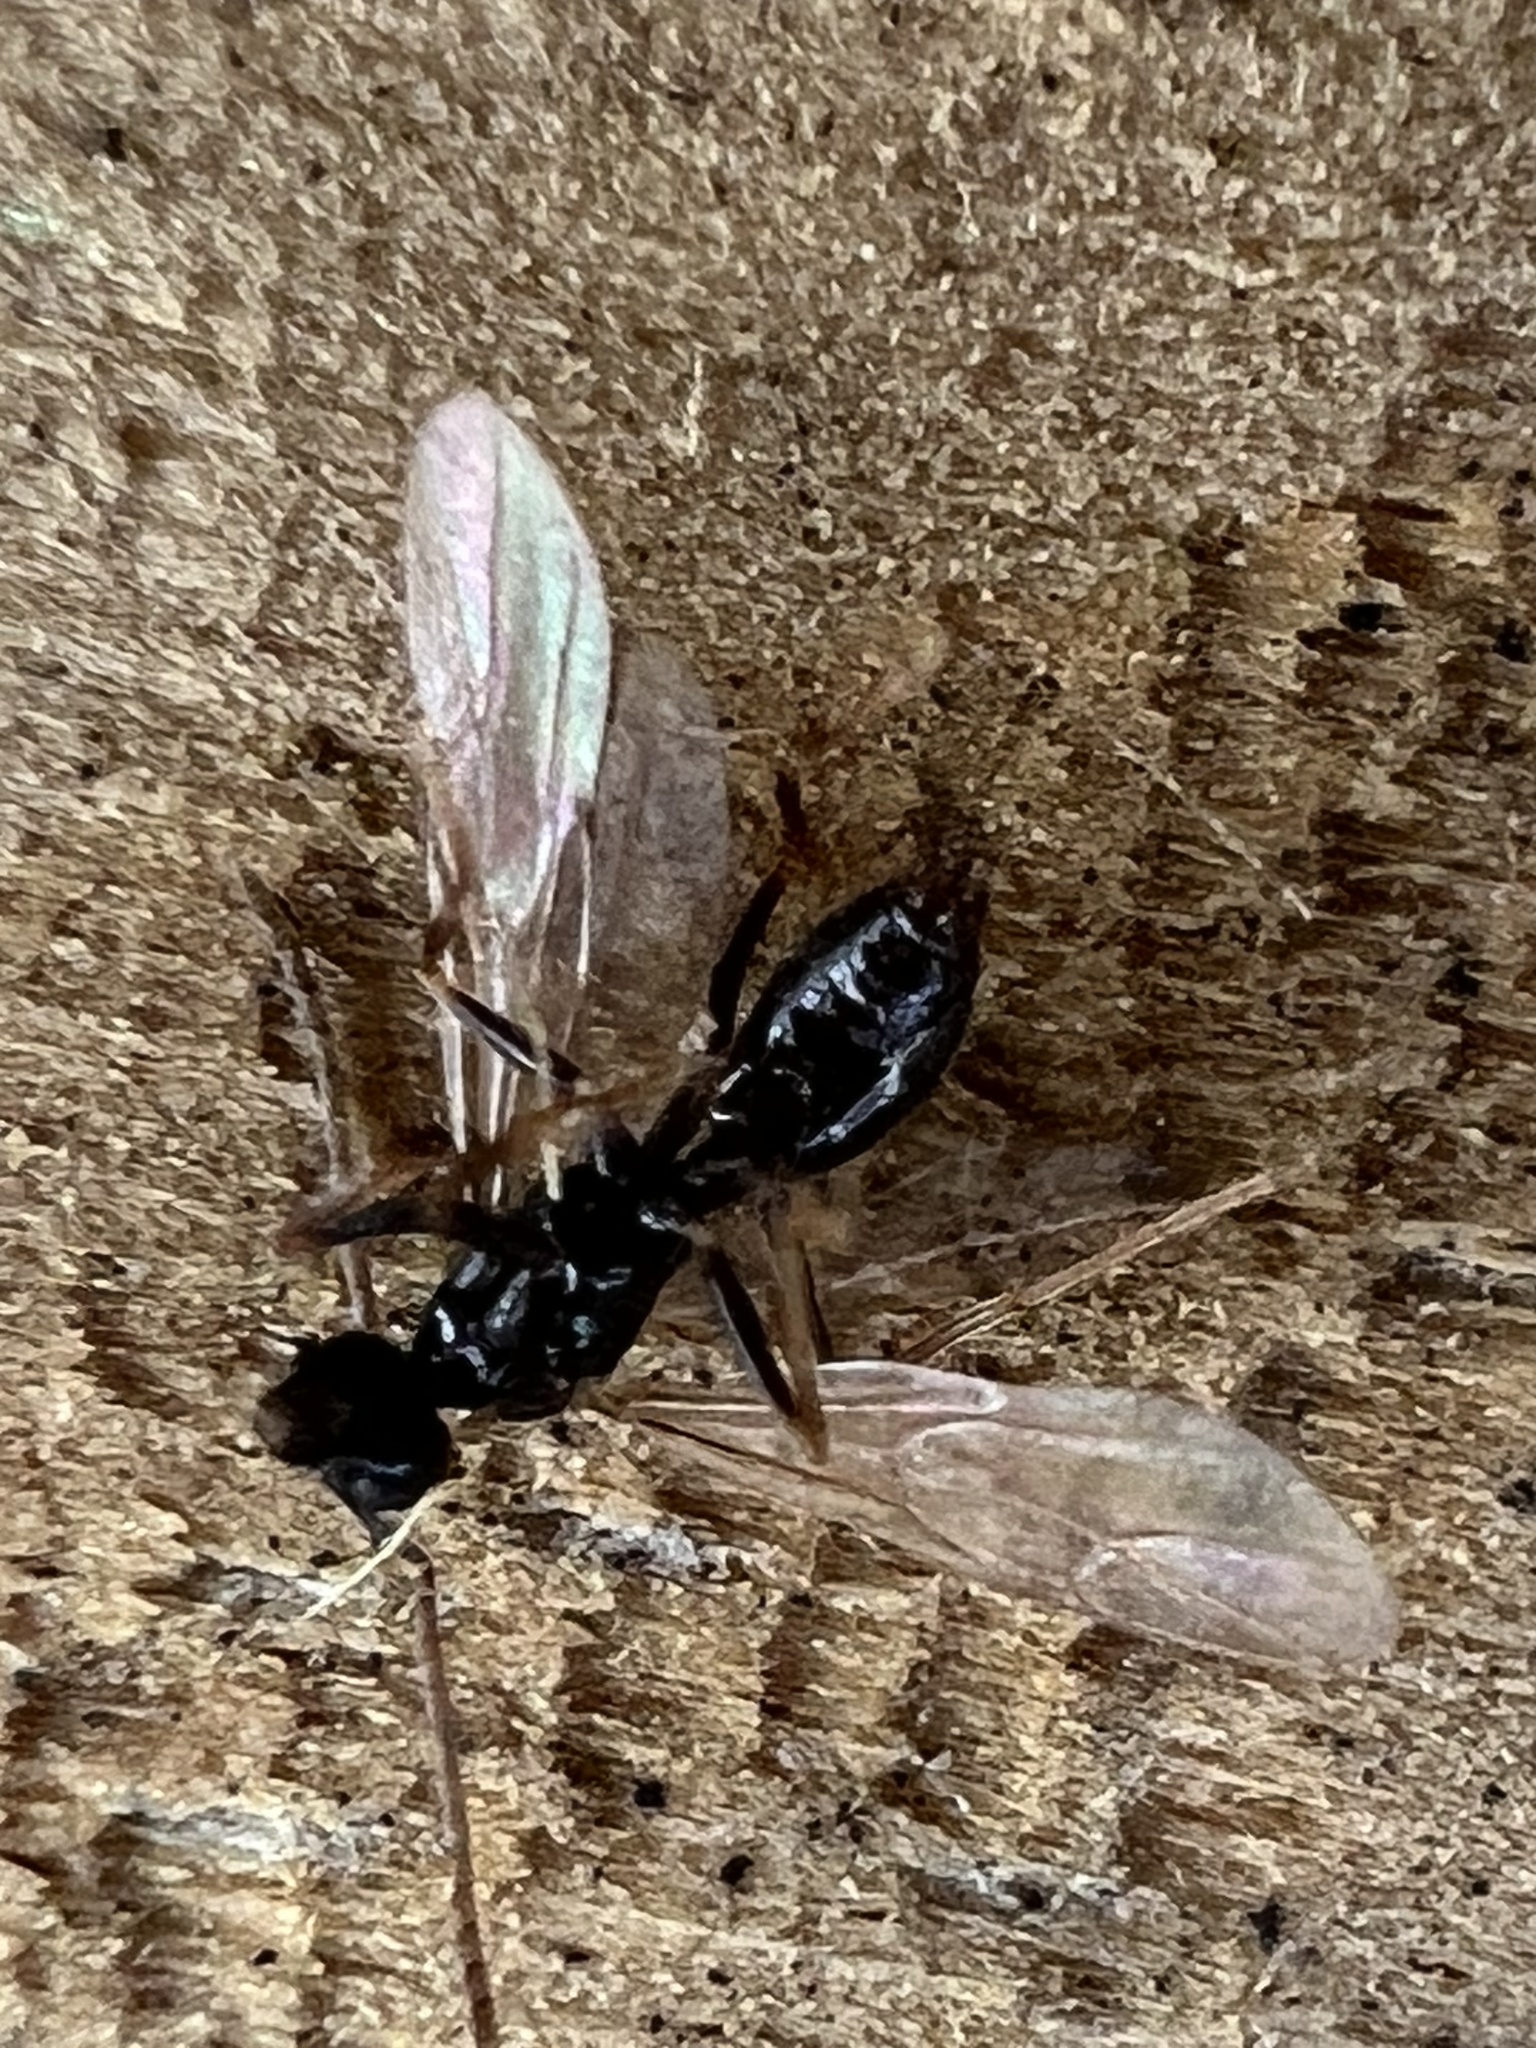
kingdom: Animalia
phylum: Arthropoda
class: Insecta
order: Hymenoptera
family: Formicidae
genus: Prenolepis
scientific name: Prenolepis imparis
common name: Small honey ant
